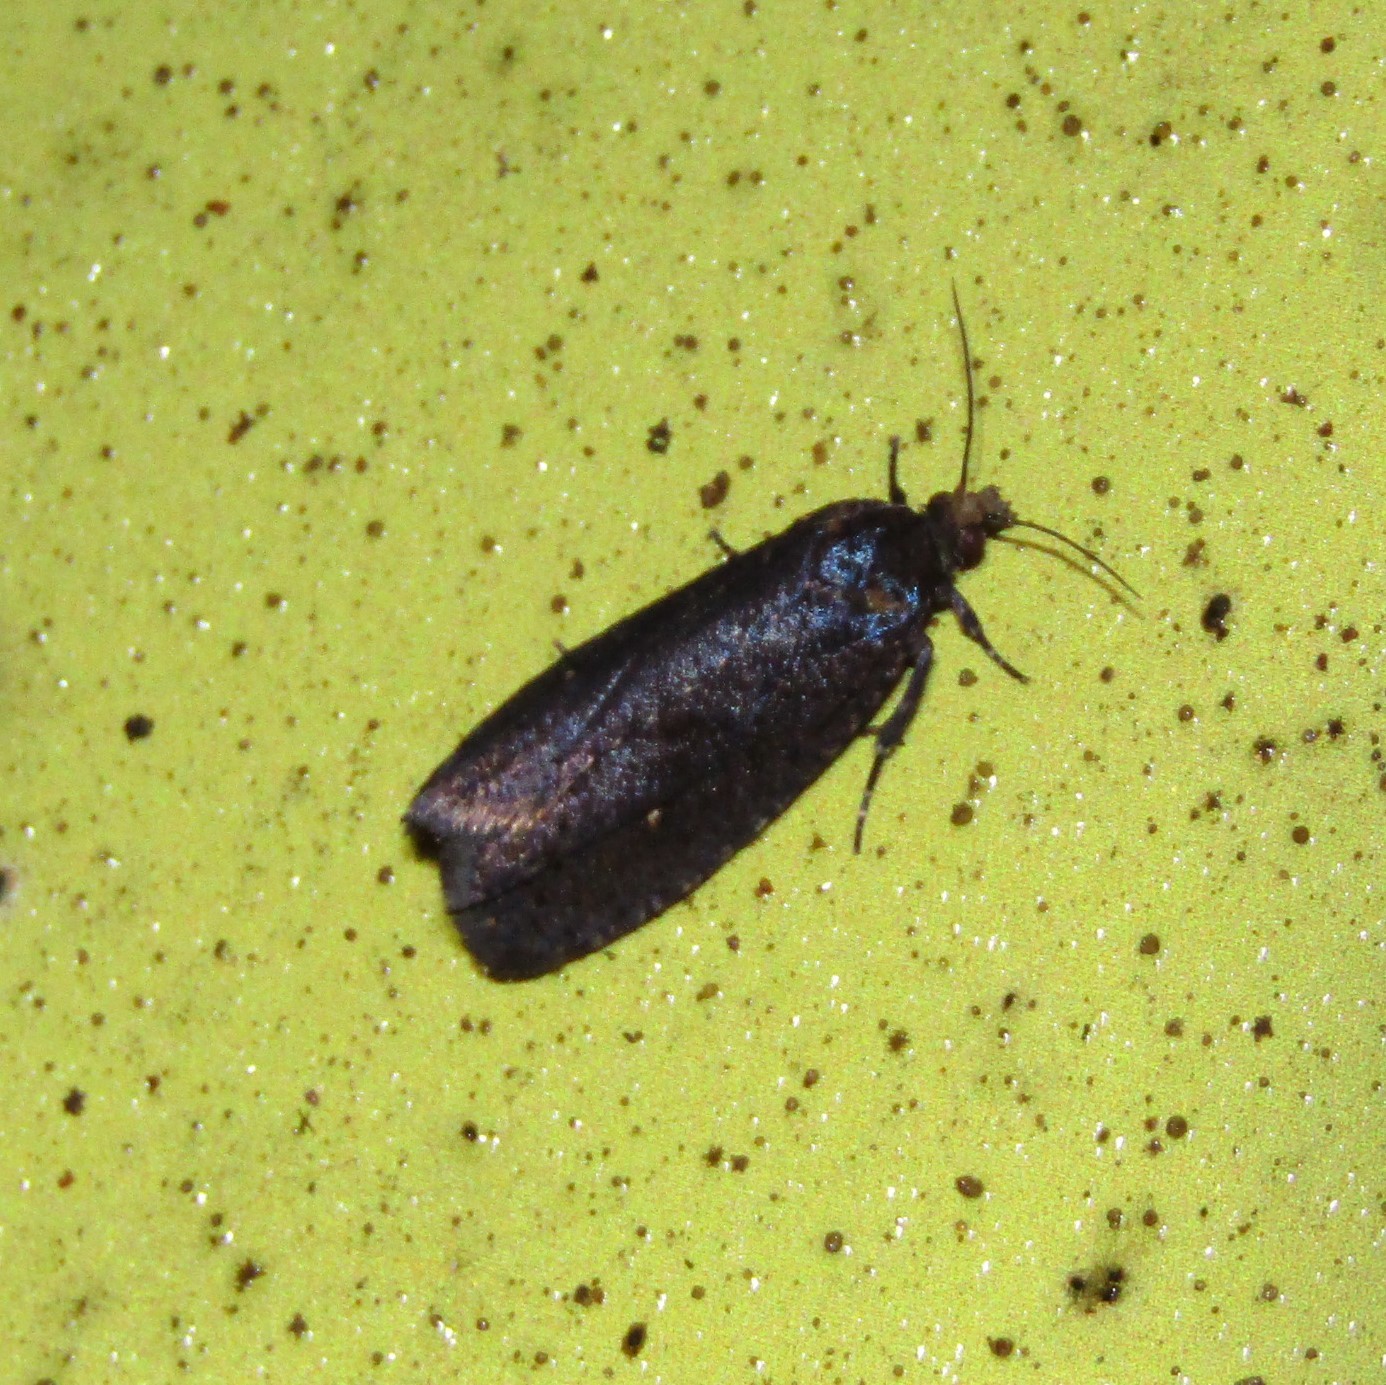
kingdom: Animalia
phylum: Arthropoda
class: Insecta
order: Lepidoptera
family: Tortricidae
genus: Cryptaspasma
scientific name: Cryptaspasma querula
